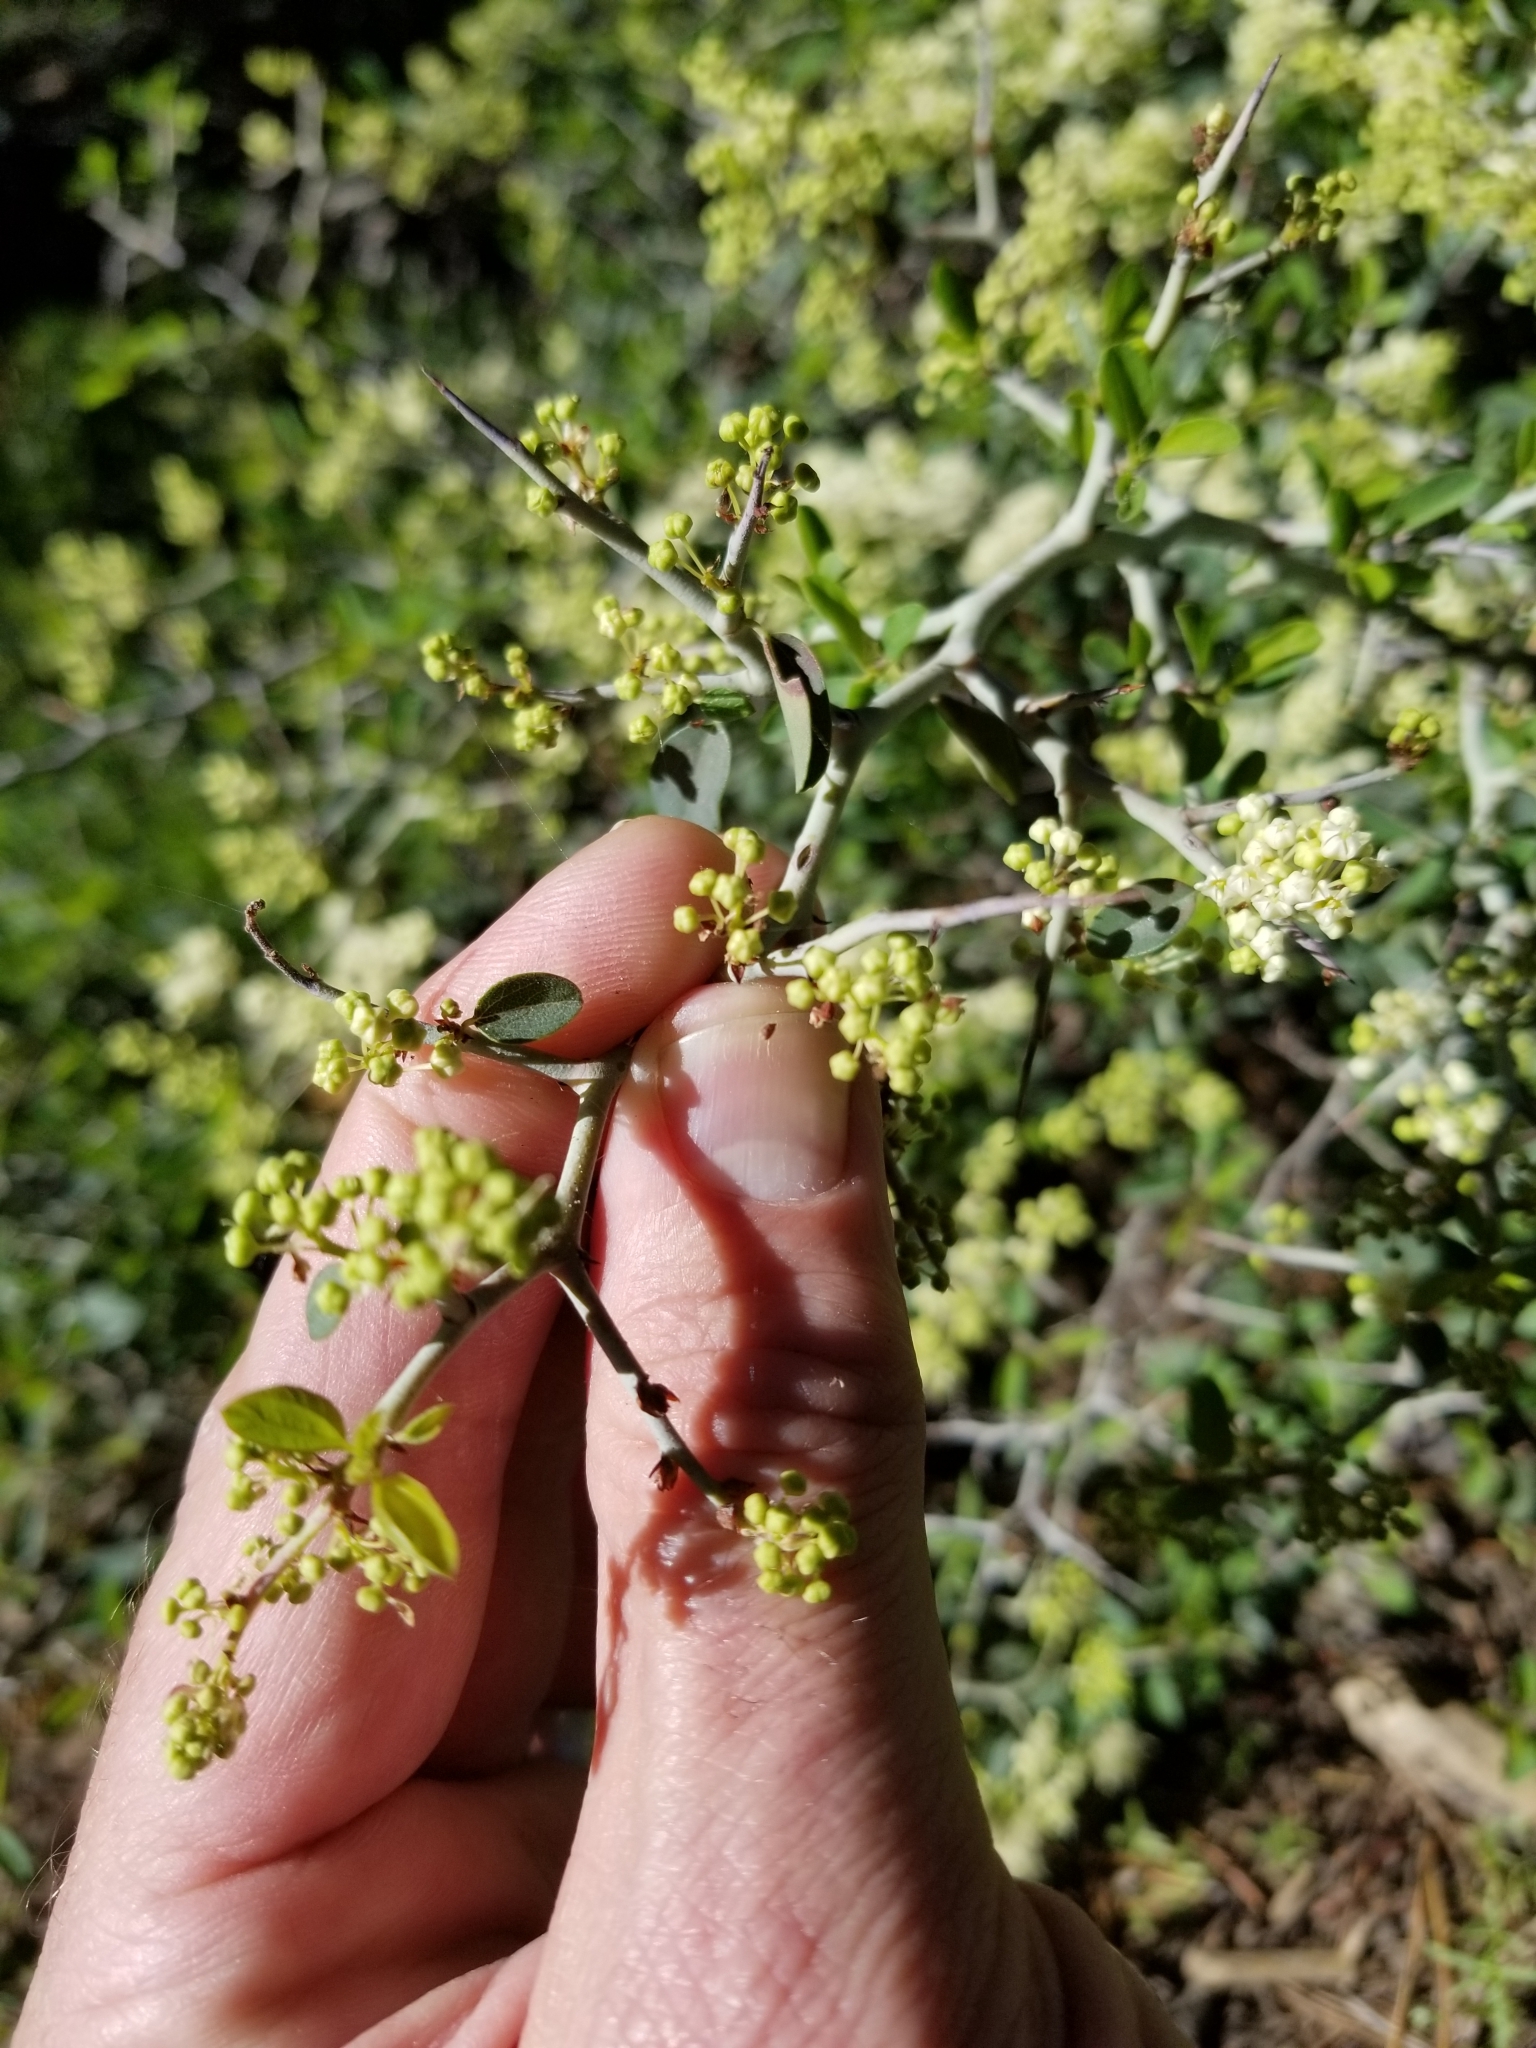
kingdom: Plantae
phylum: Tracheophyta
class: Magnoliopsida
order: Rosales
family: Rhamnaceae
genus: Ceanothus
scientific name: Ceanothus cordulatus
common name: Mountain whitethorn
